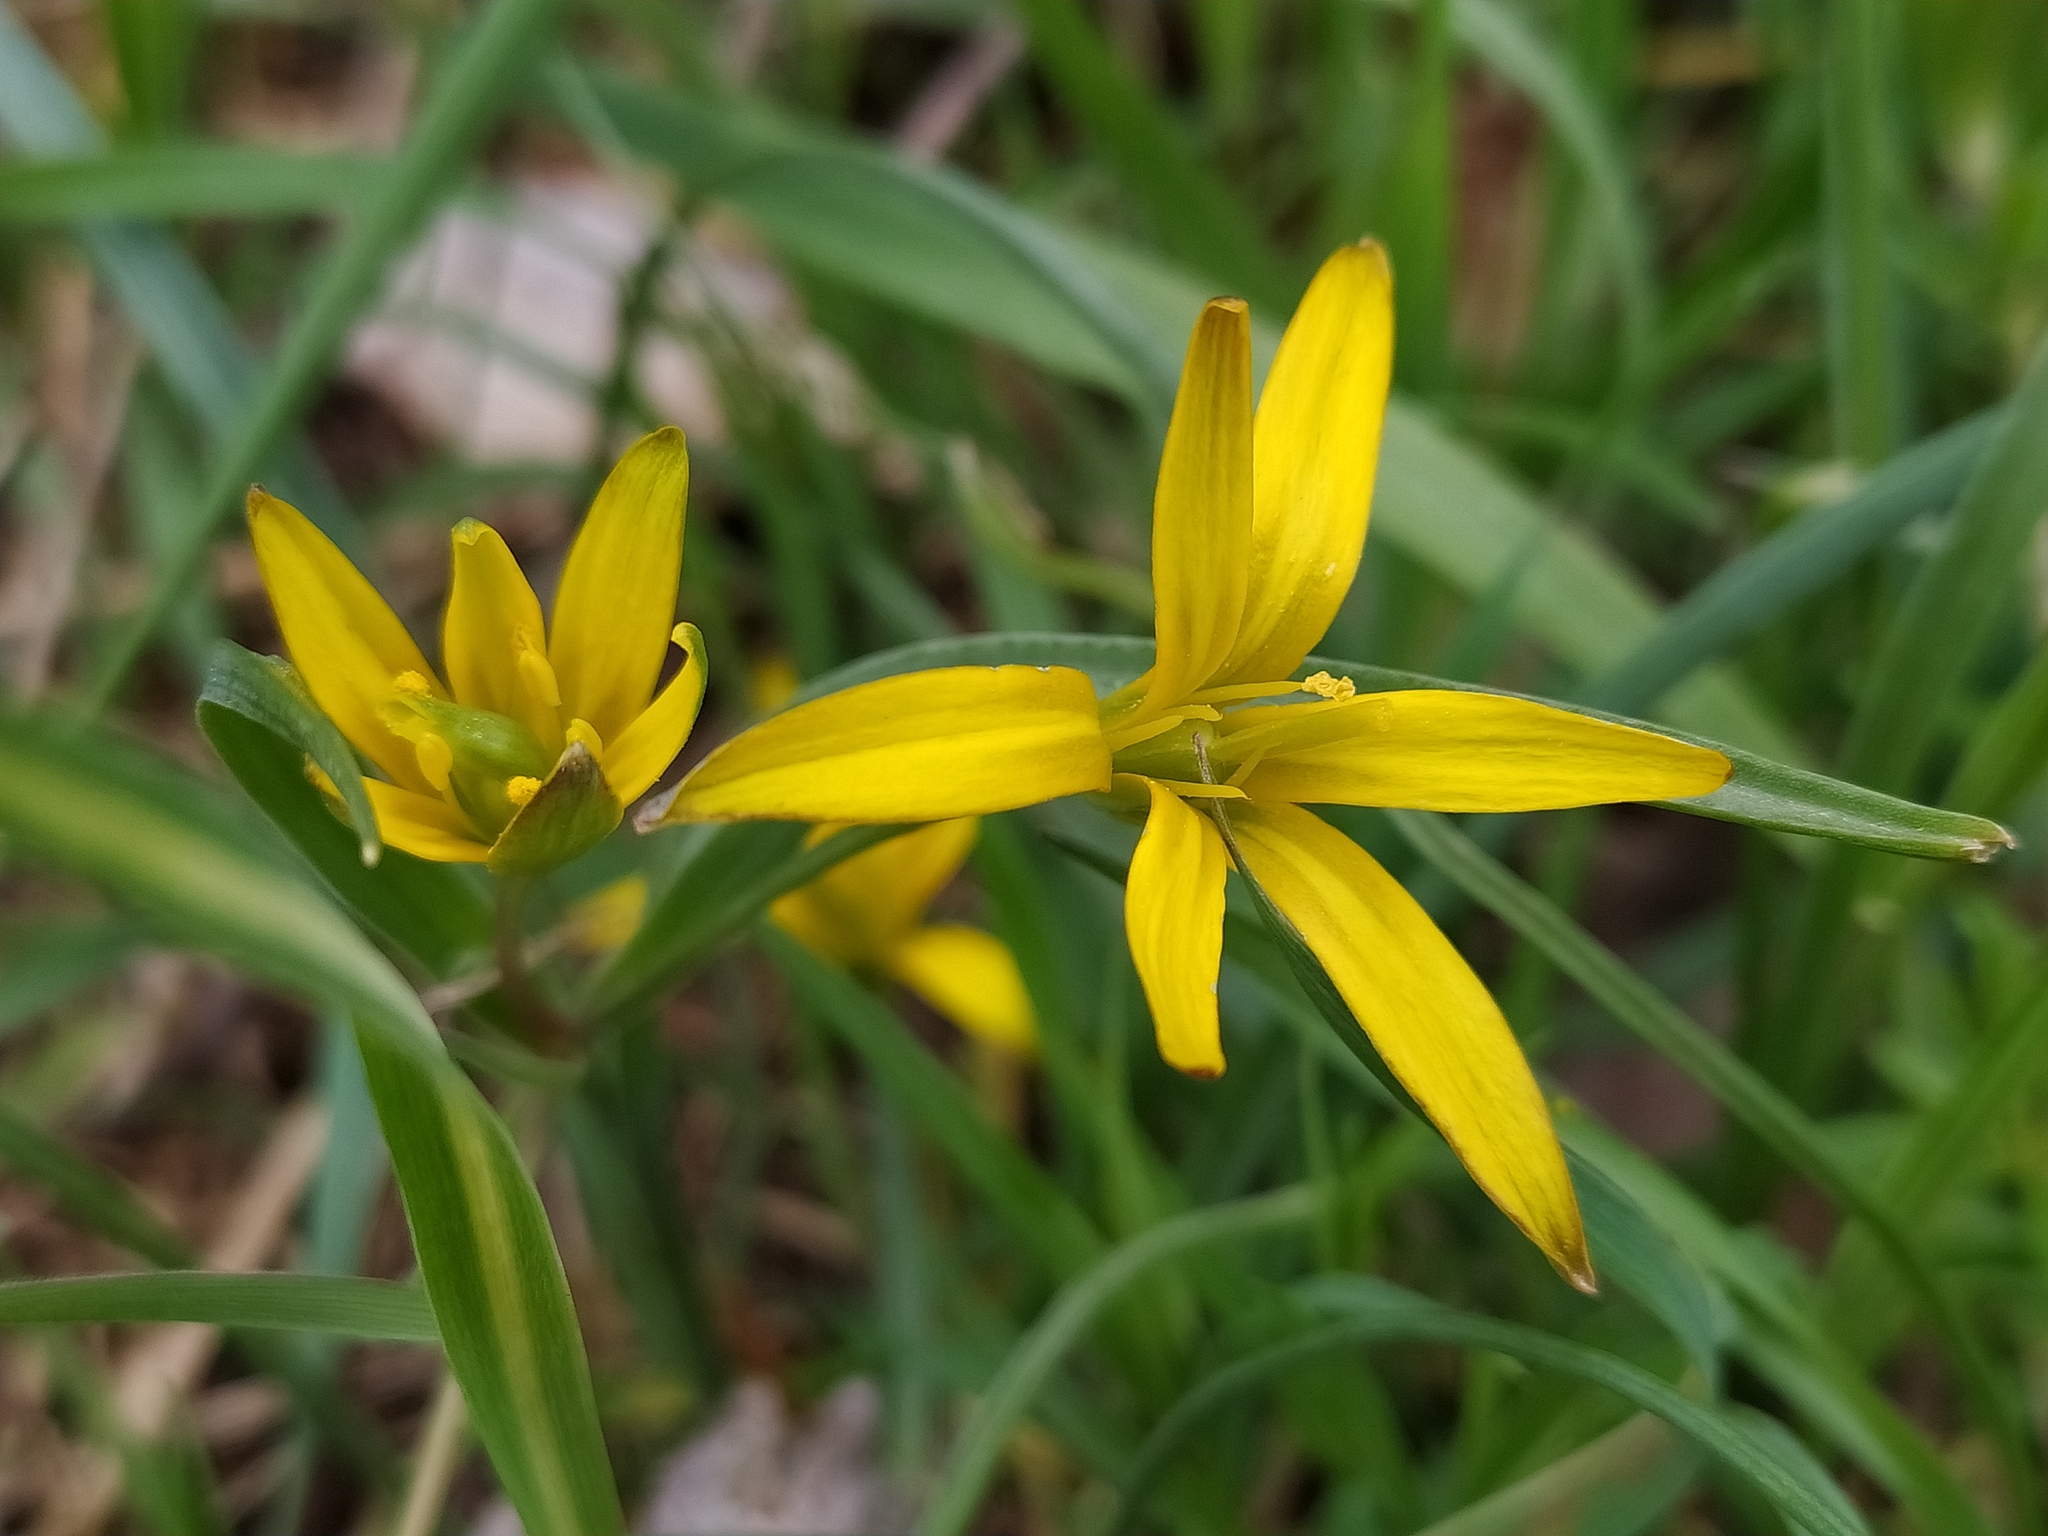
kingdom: Plantae
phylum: Tracheophyta
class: Liliopsida
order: Liliales
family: Liliaceae
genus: Gagea
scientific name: Gagea pratensis
